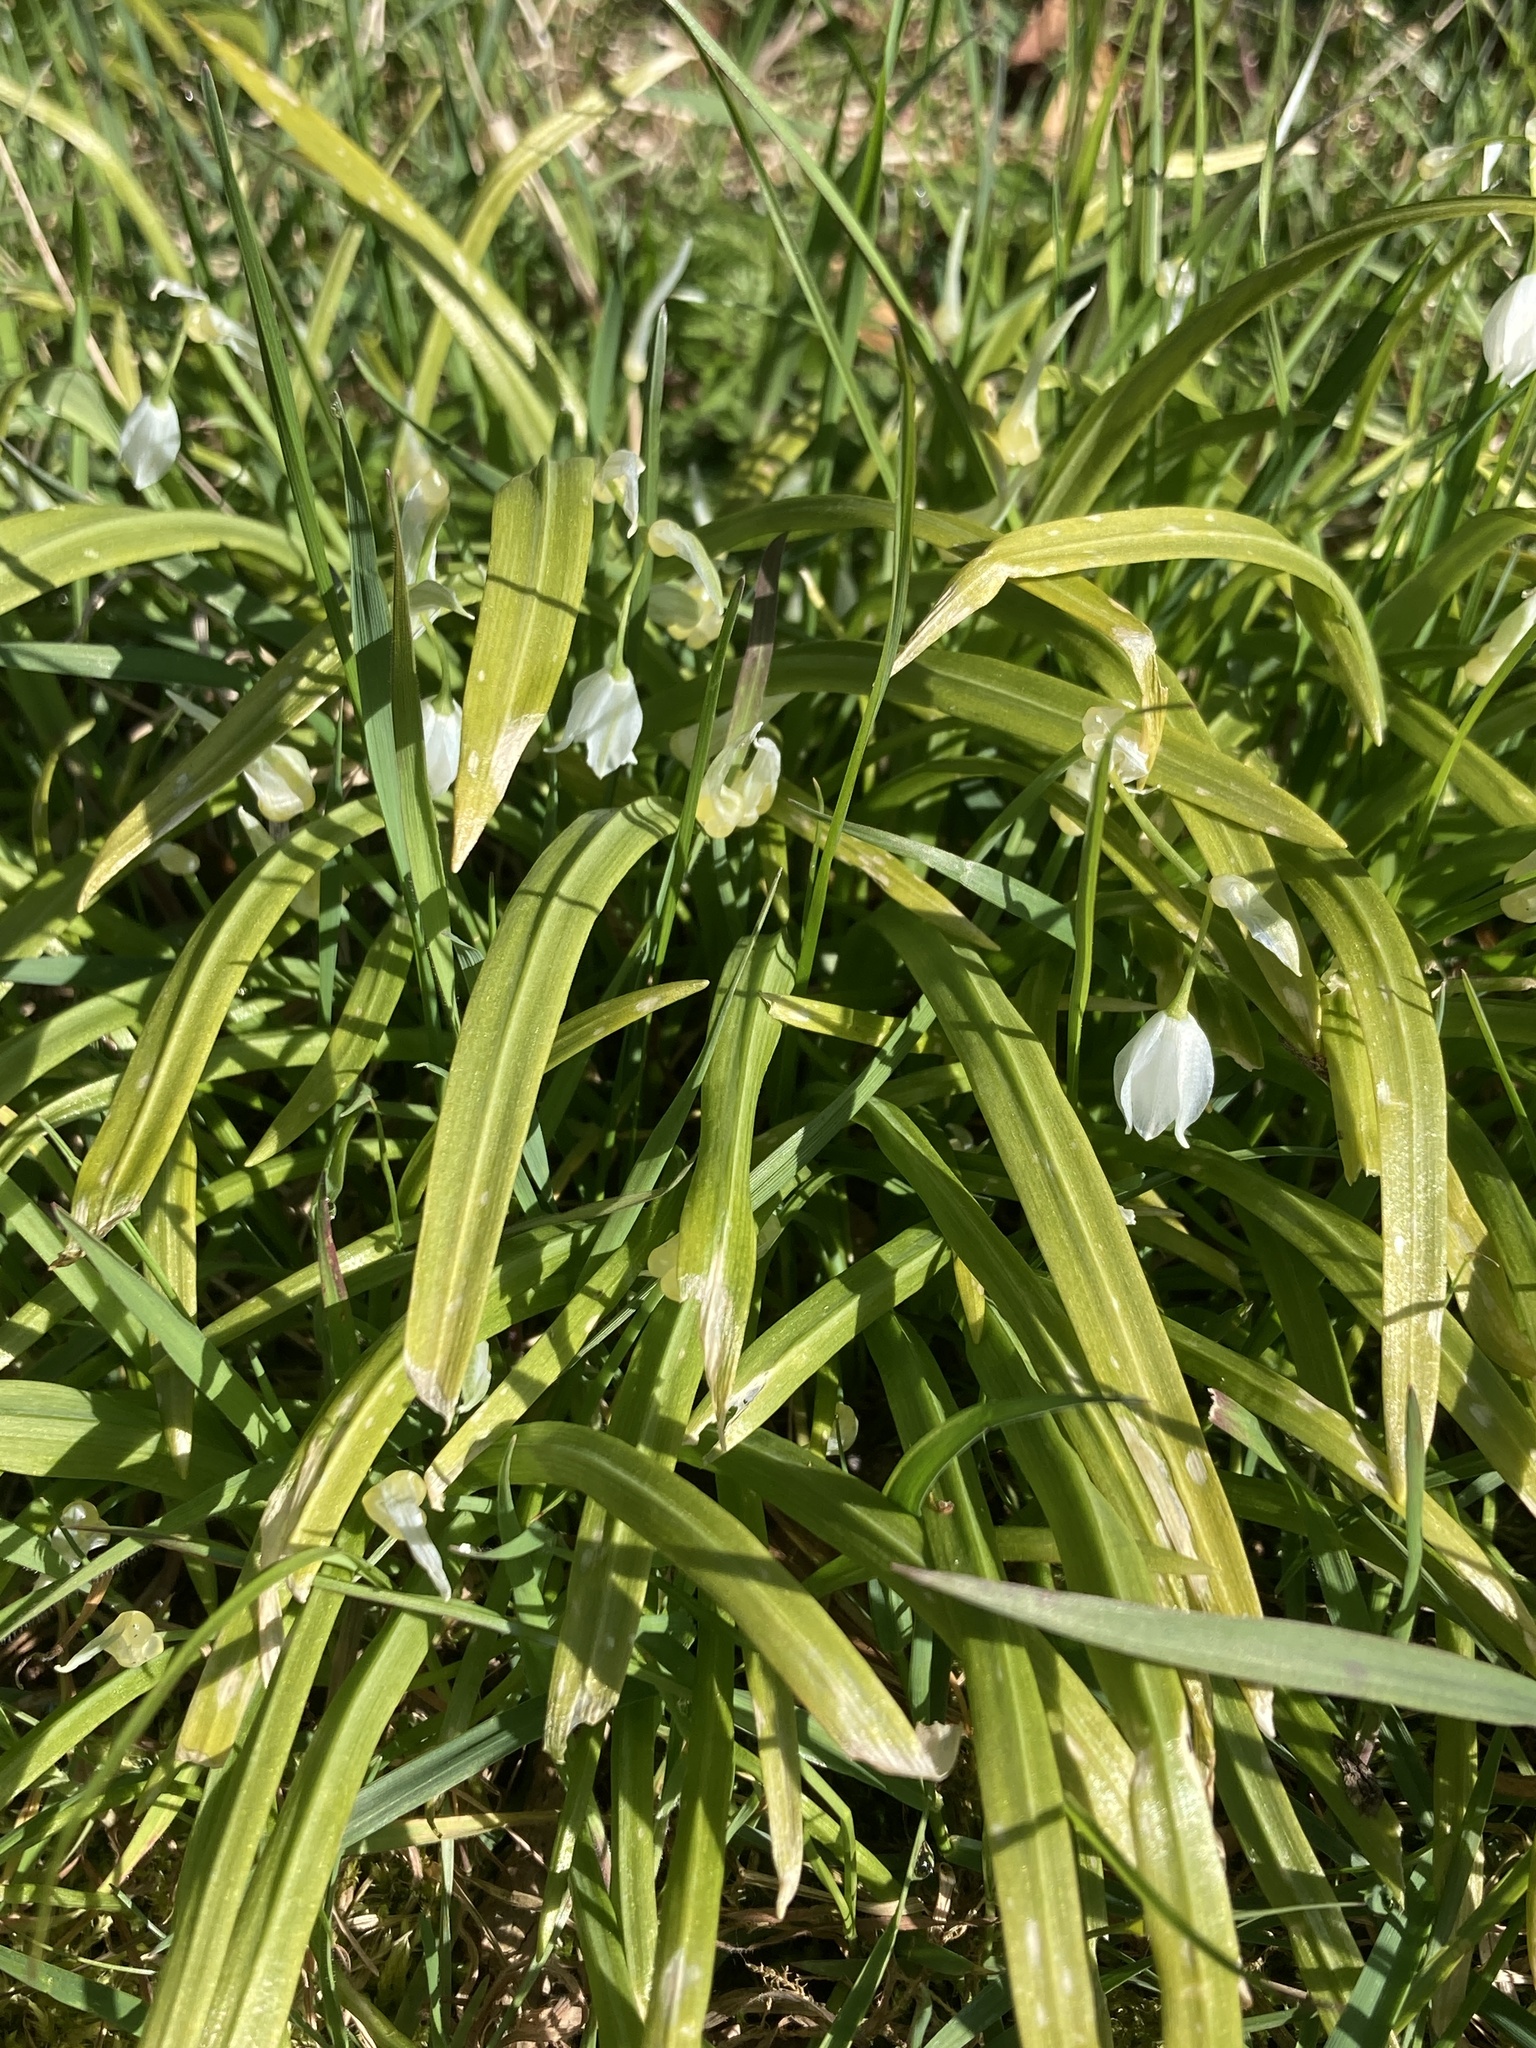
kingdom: Plantae
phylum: Tracheophyta
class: Liliopsida
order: Asparagales
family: Amaryllidaceae
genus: Allium
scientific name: Allium paradoxum
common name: Few-flowered garlic
